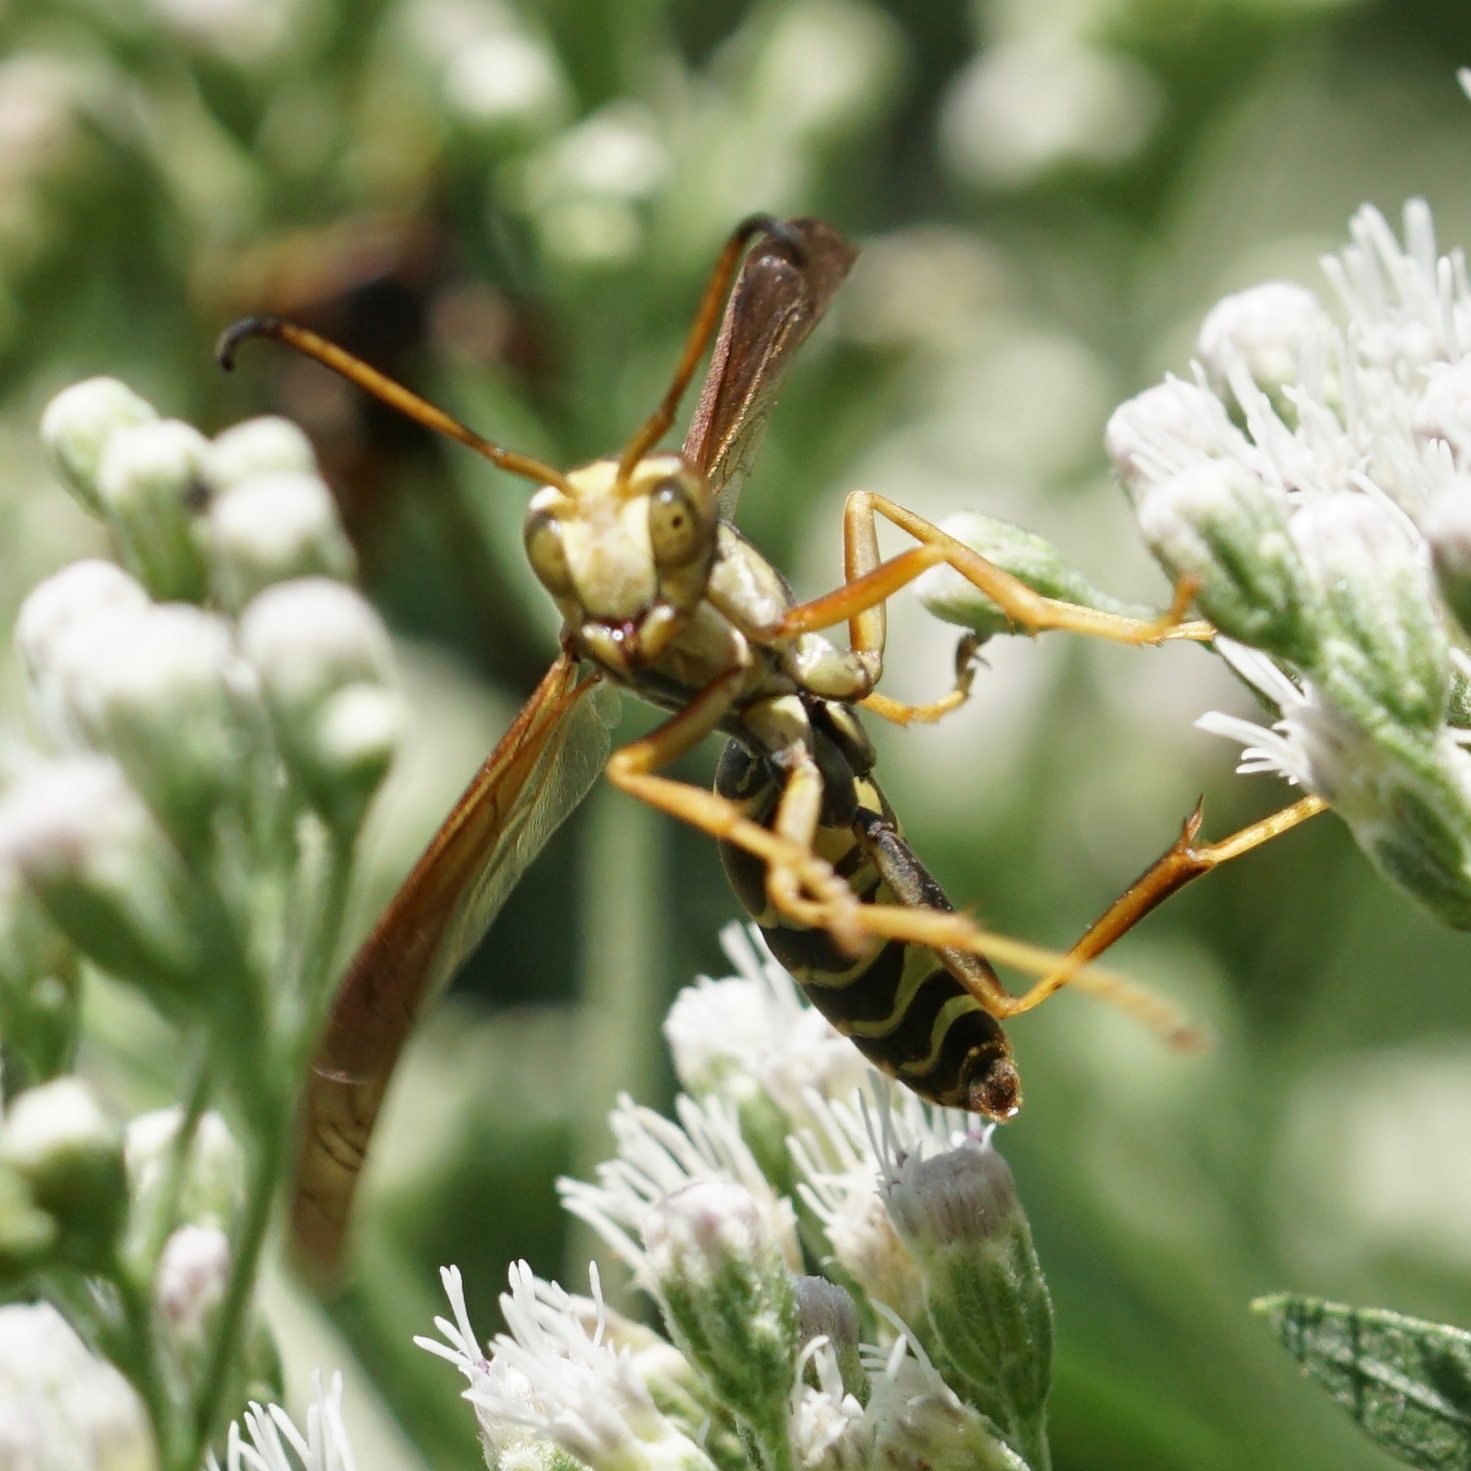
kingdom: Animalia
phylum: Arthropoda
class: Insecta
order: Hymenoptera
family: Eumenidae
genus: Polistes
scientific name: Polistes fuscatus
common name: Dark paper wasp
